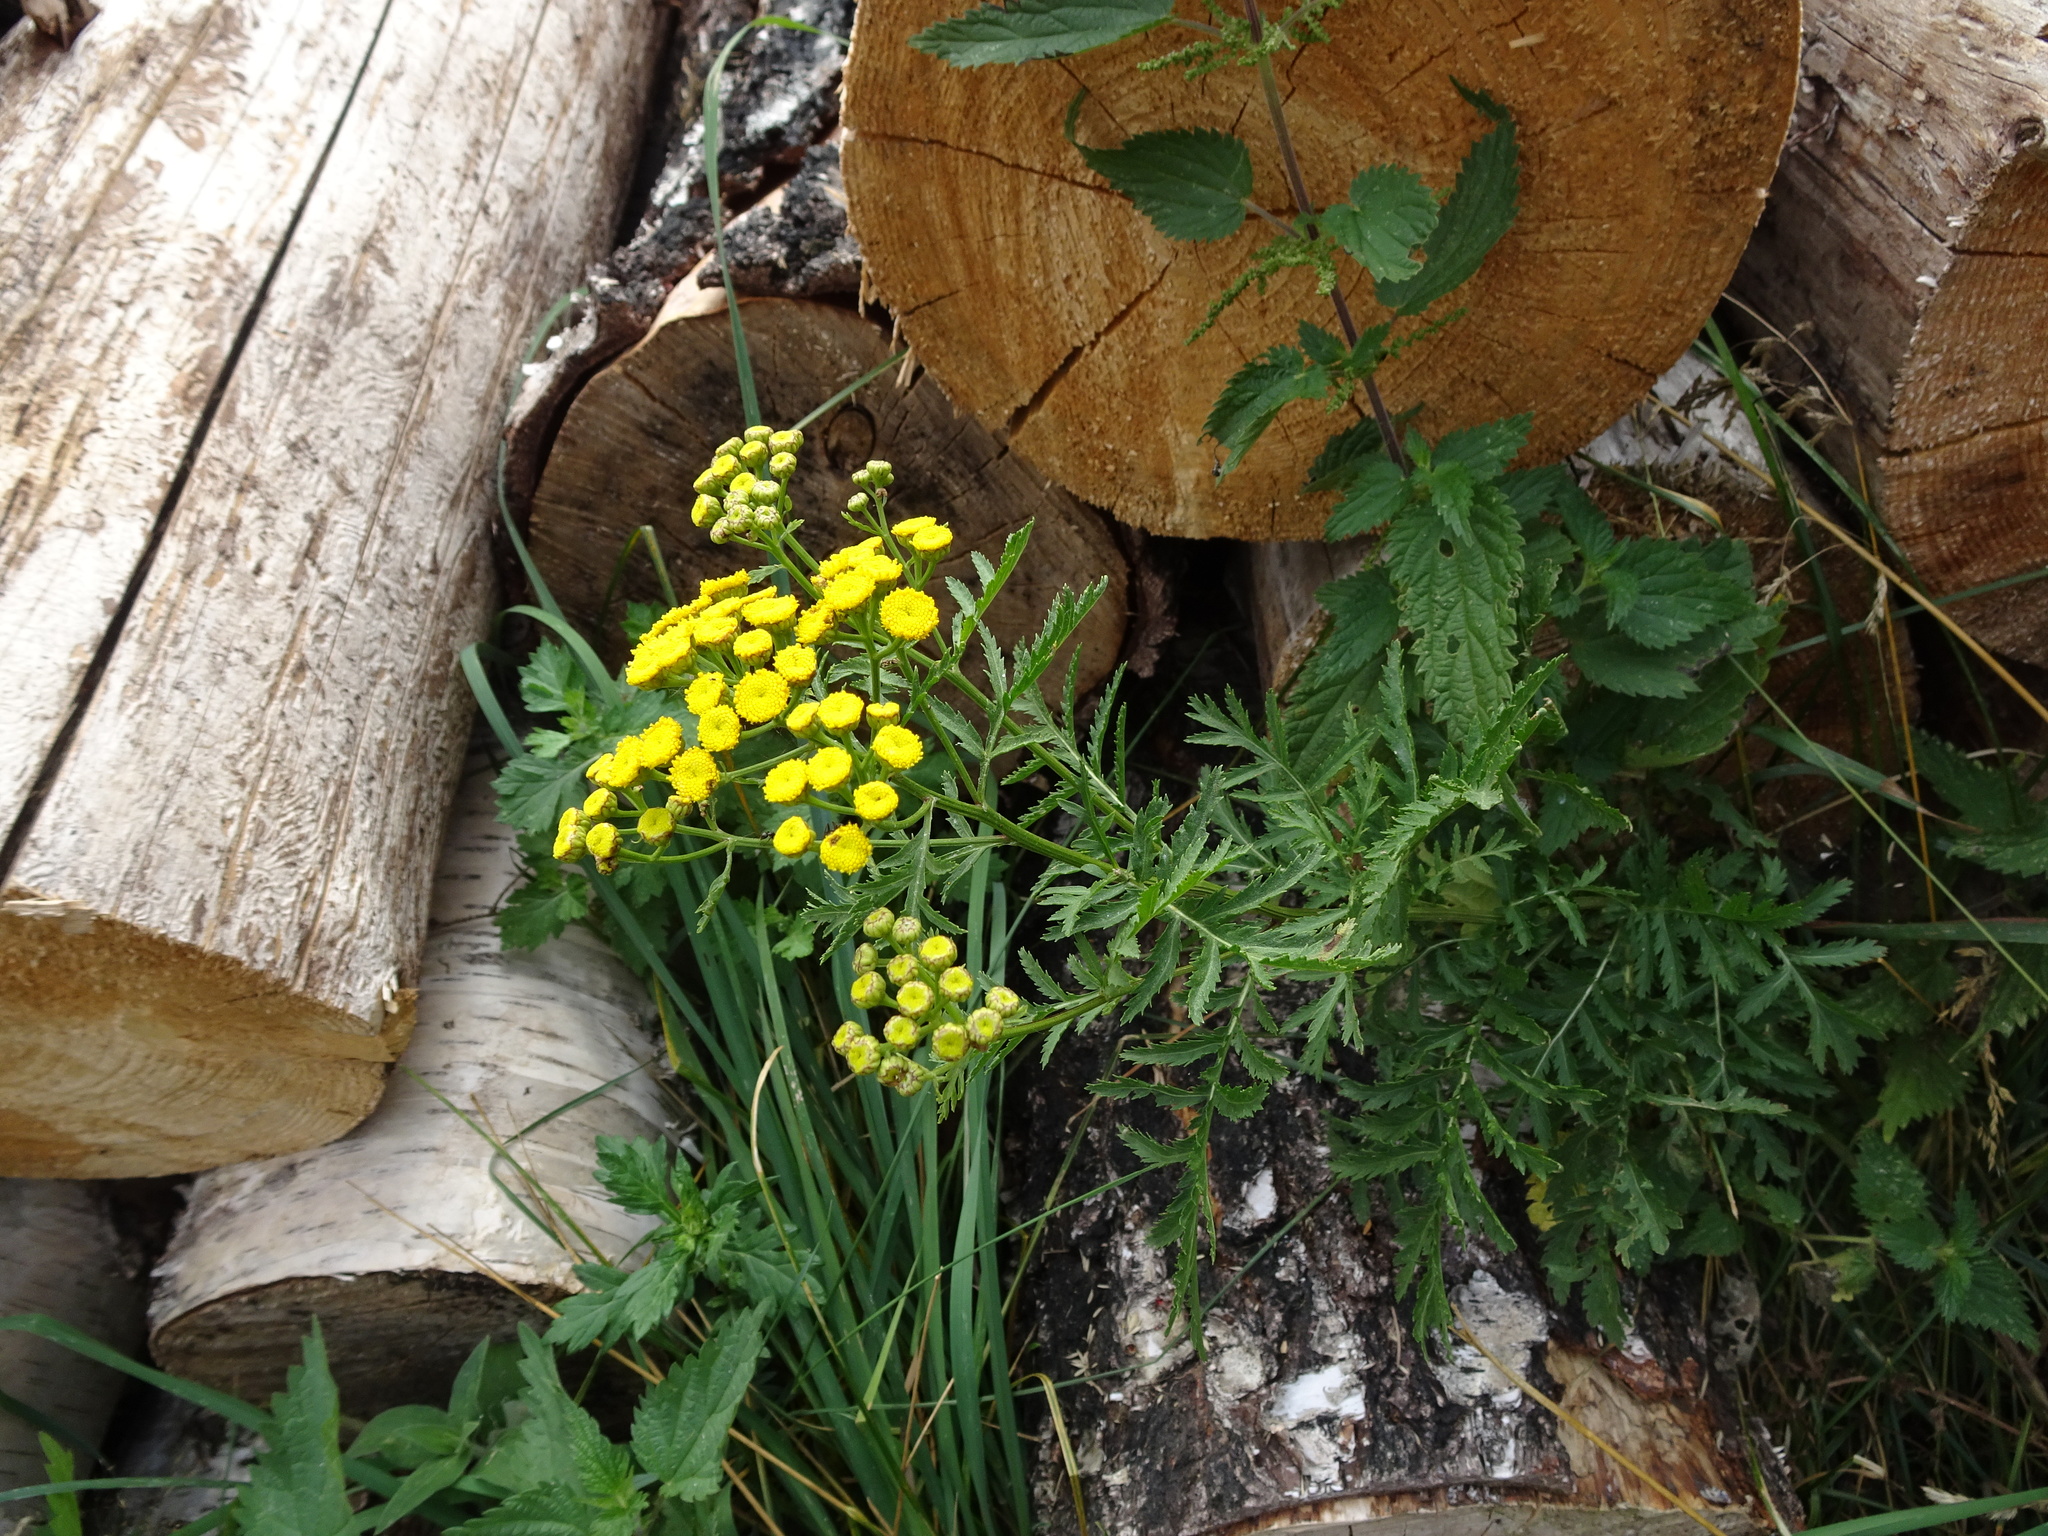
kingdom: Plantae
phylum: Tracheophyta
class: Magnoliopsida
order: Asterales
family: Asteraceae
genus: Tanacetum
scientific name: Tanacetum vulgare
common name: Common tansy
